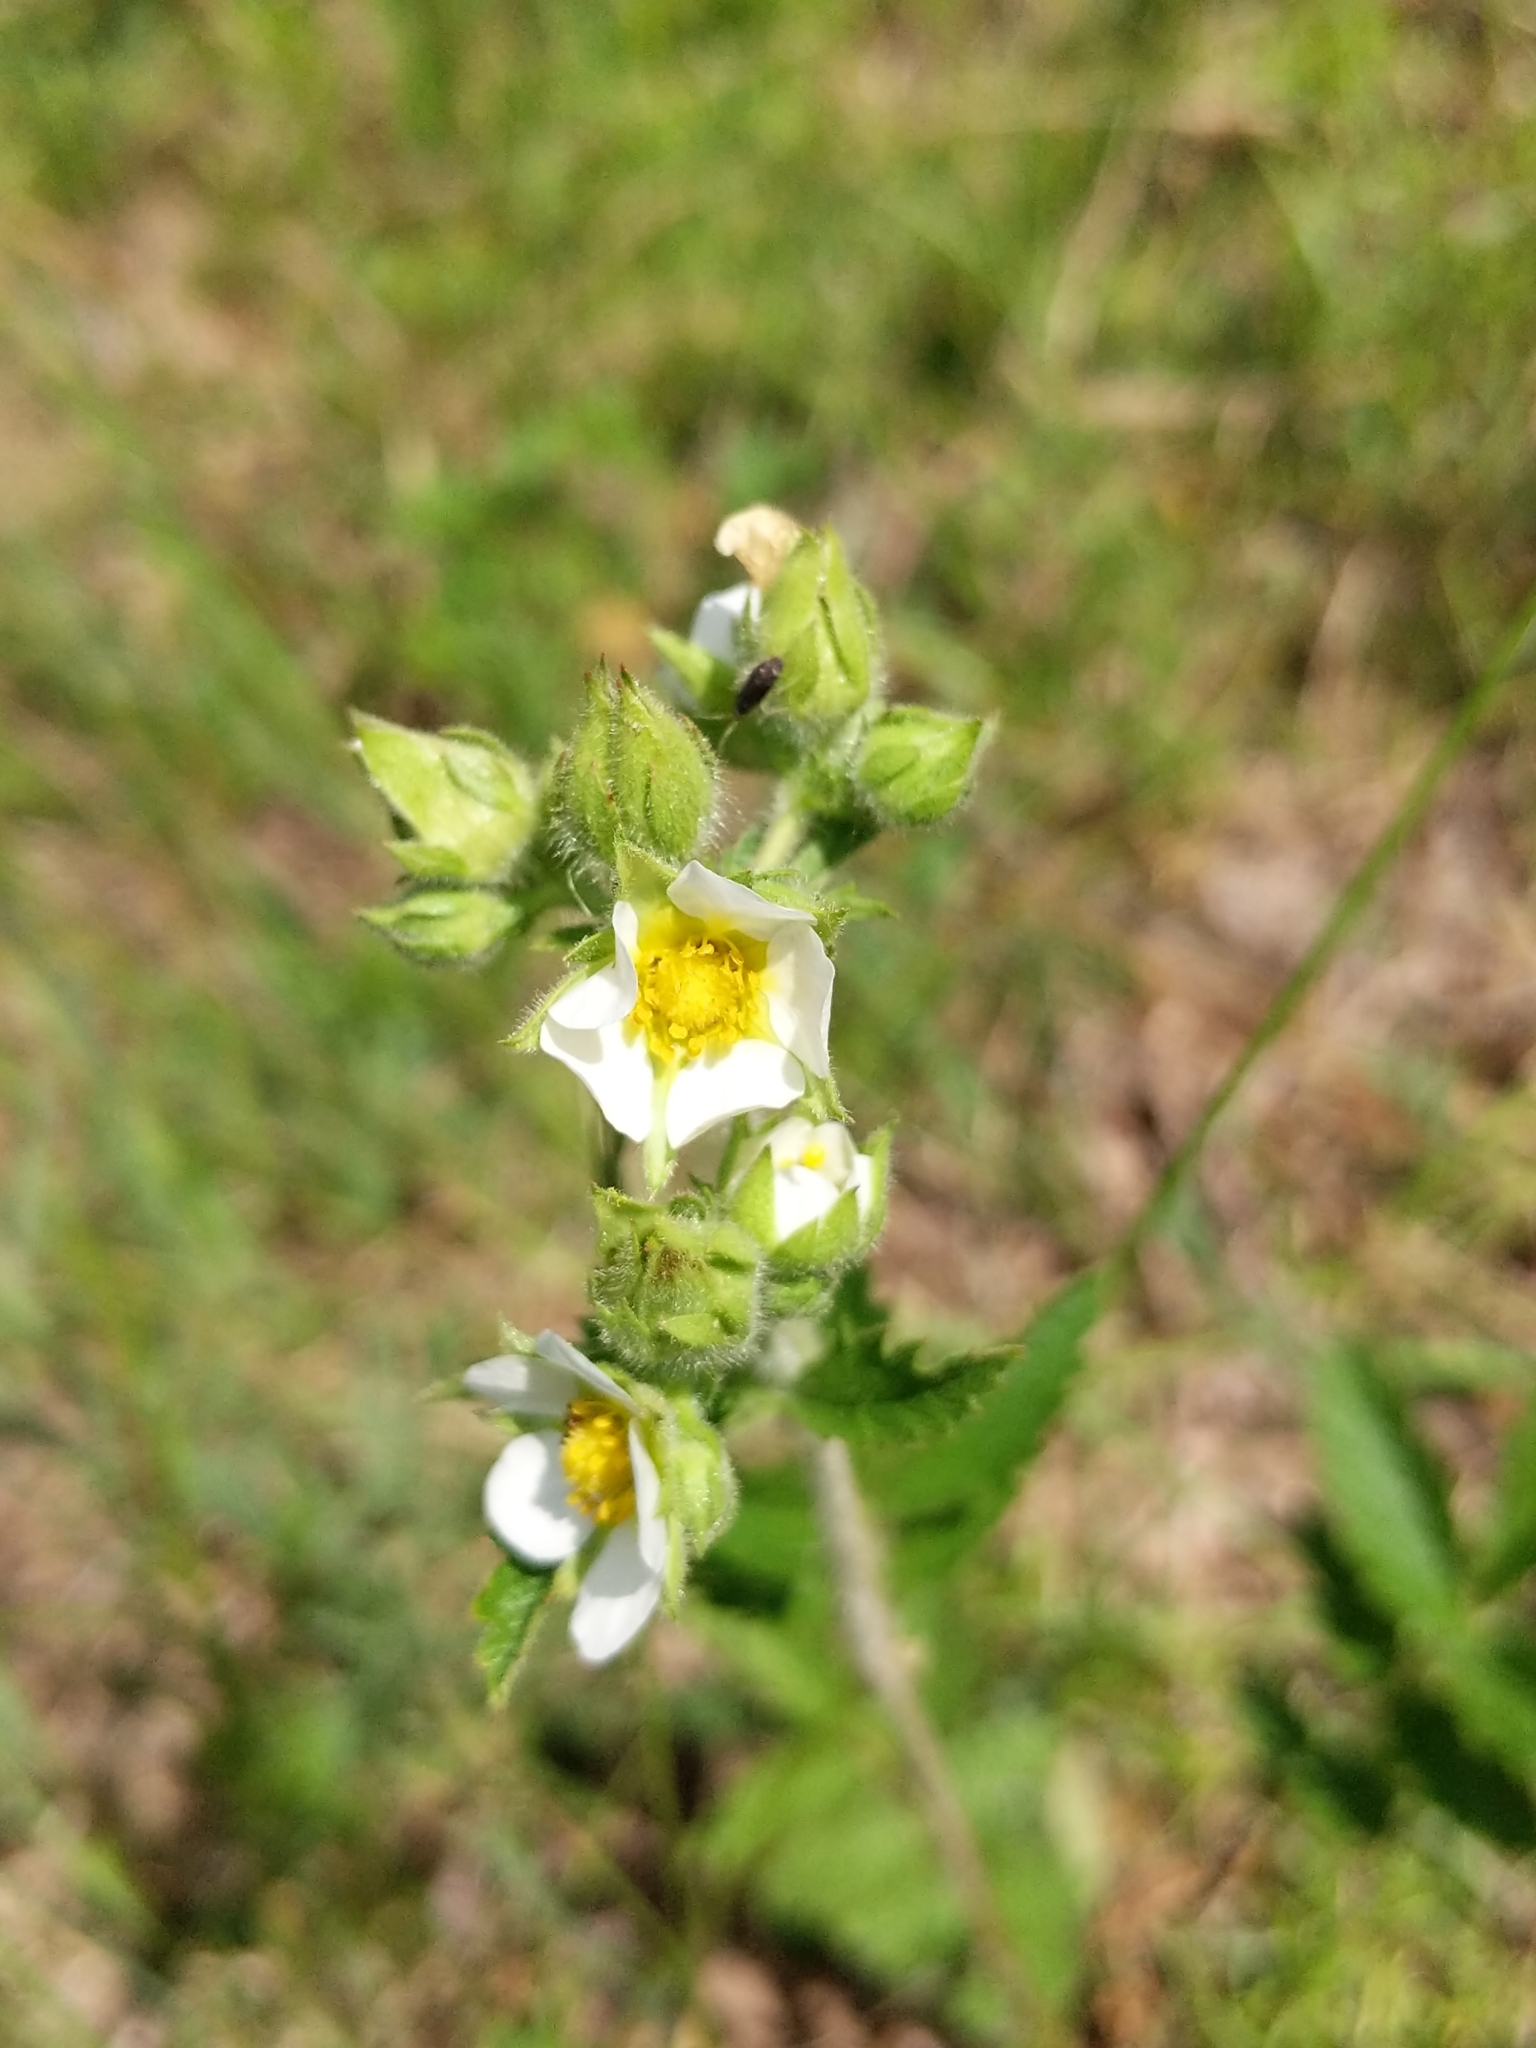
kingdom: Plantae
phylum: Tracheophyta
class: Magnoliopsida
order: Rosales
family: Rosaceae
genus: Drymocallis
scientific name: Drymocallis arguta
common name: Tall cinquefoil
